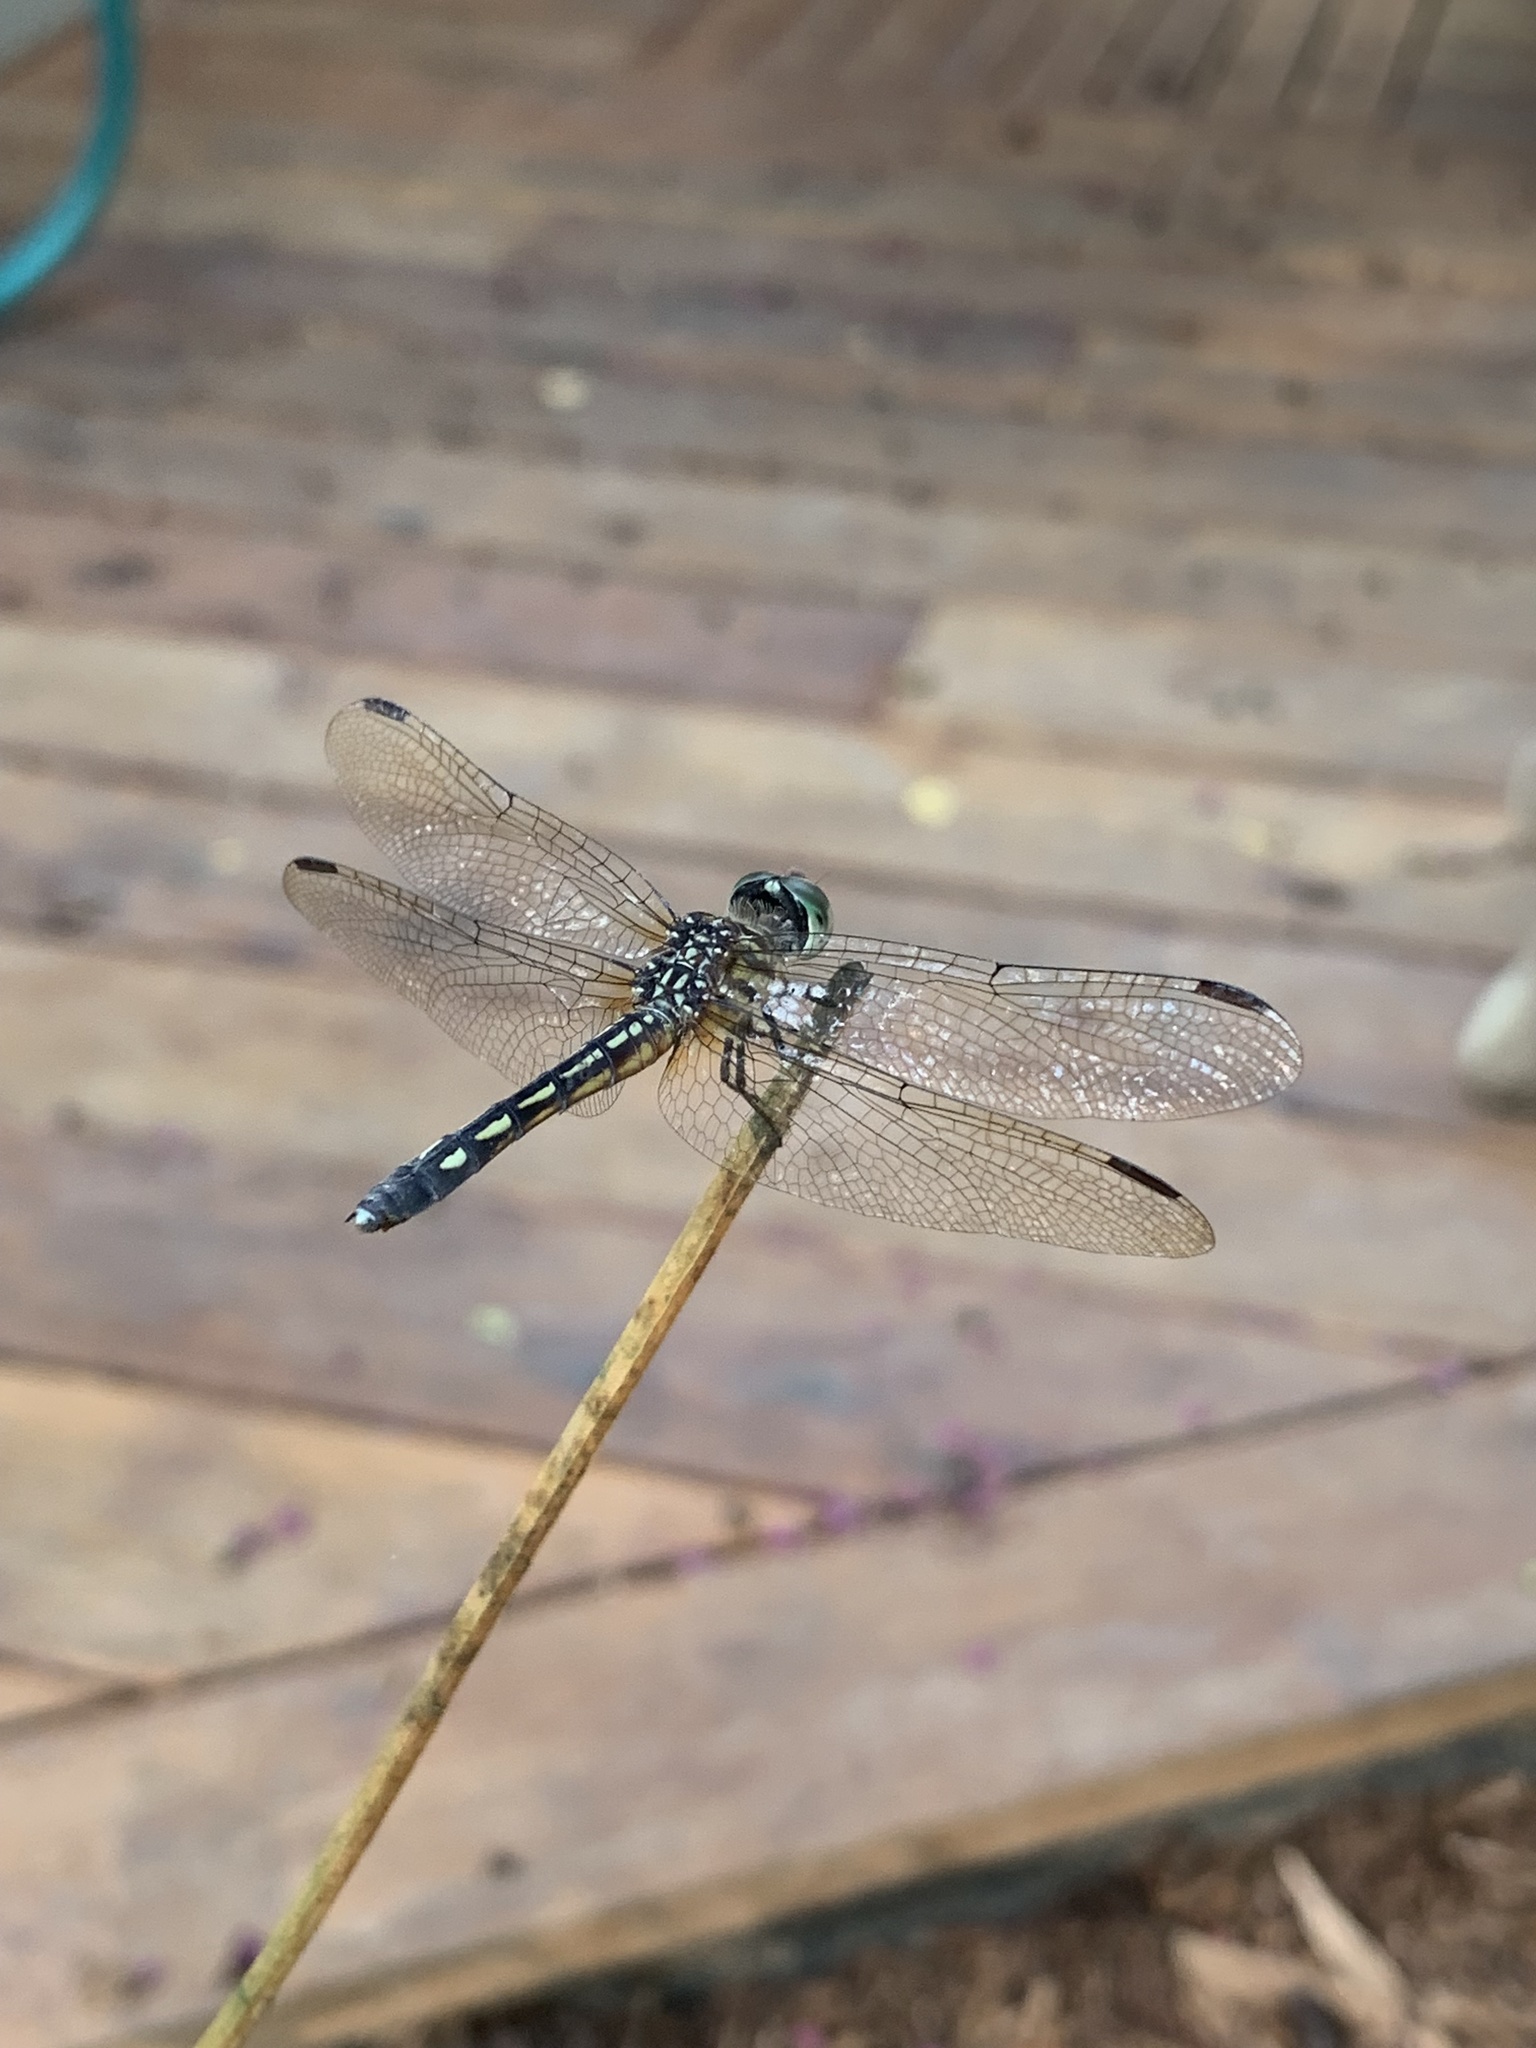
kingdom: Animalia
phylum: Arthropoda
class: Insecta
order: Odonata
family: Libellulidae
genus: Pachydiplax
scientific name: Pachydiplax longipennis
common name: Blue dasher
